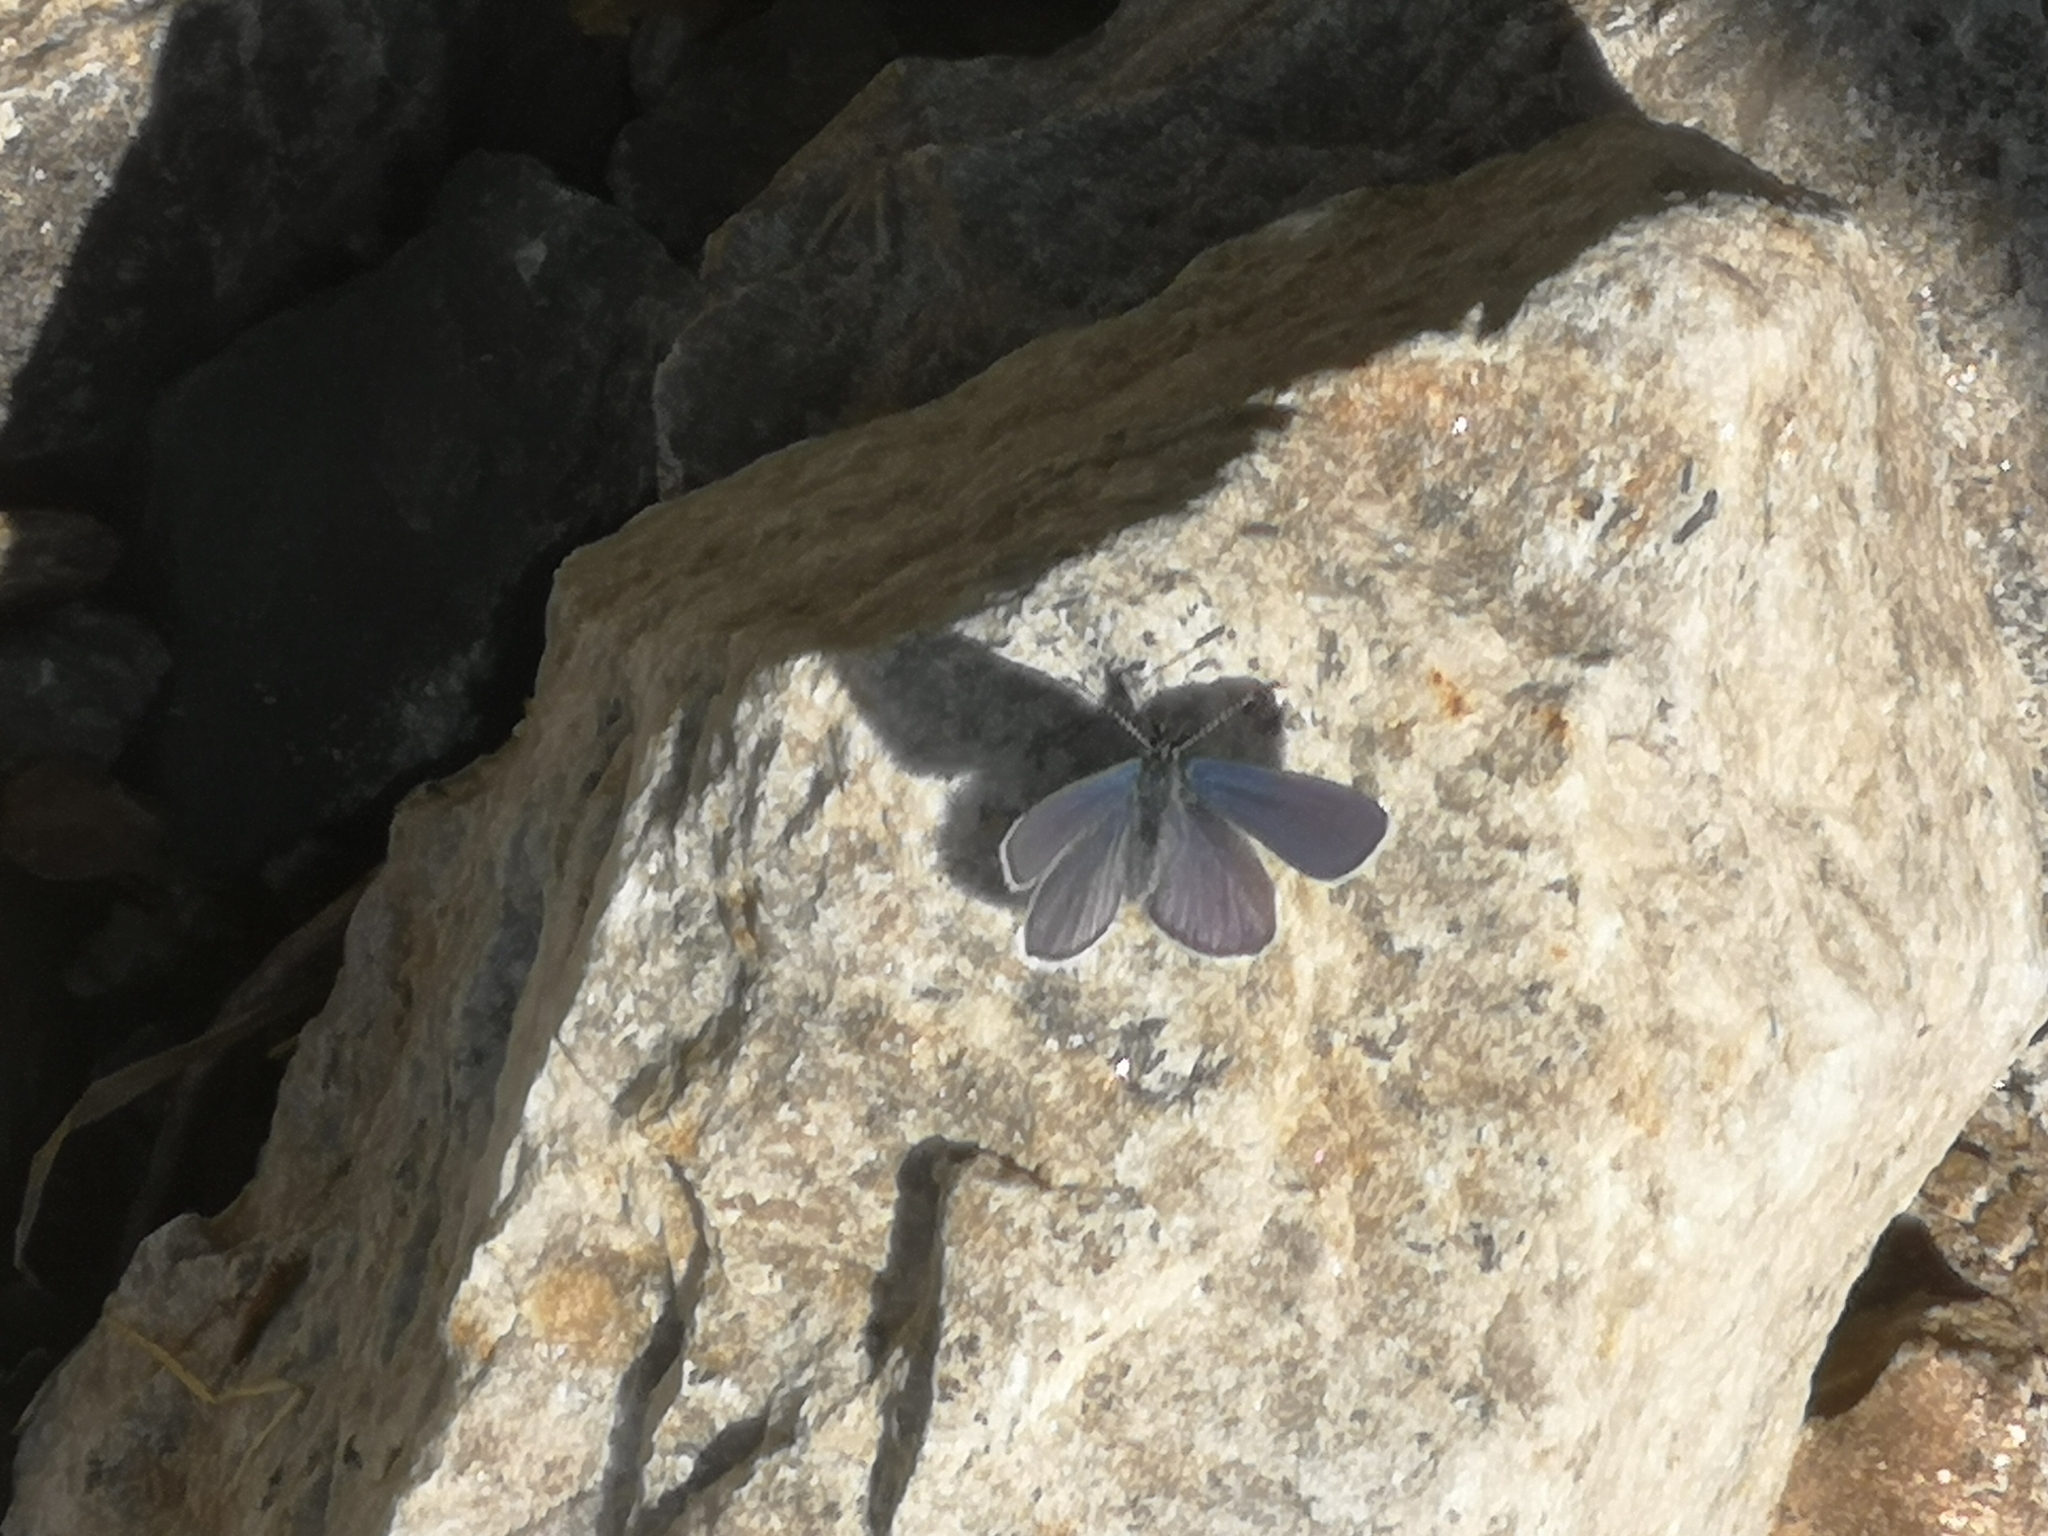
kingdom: Animalia
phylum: Arthropoda
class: Insecta
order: Lepidoptera
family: Lycaenidae
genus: Cupido
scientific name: Cupido minimus
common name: Small blue
